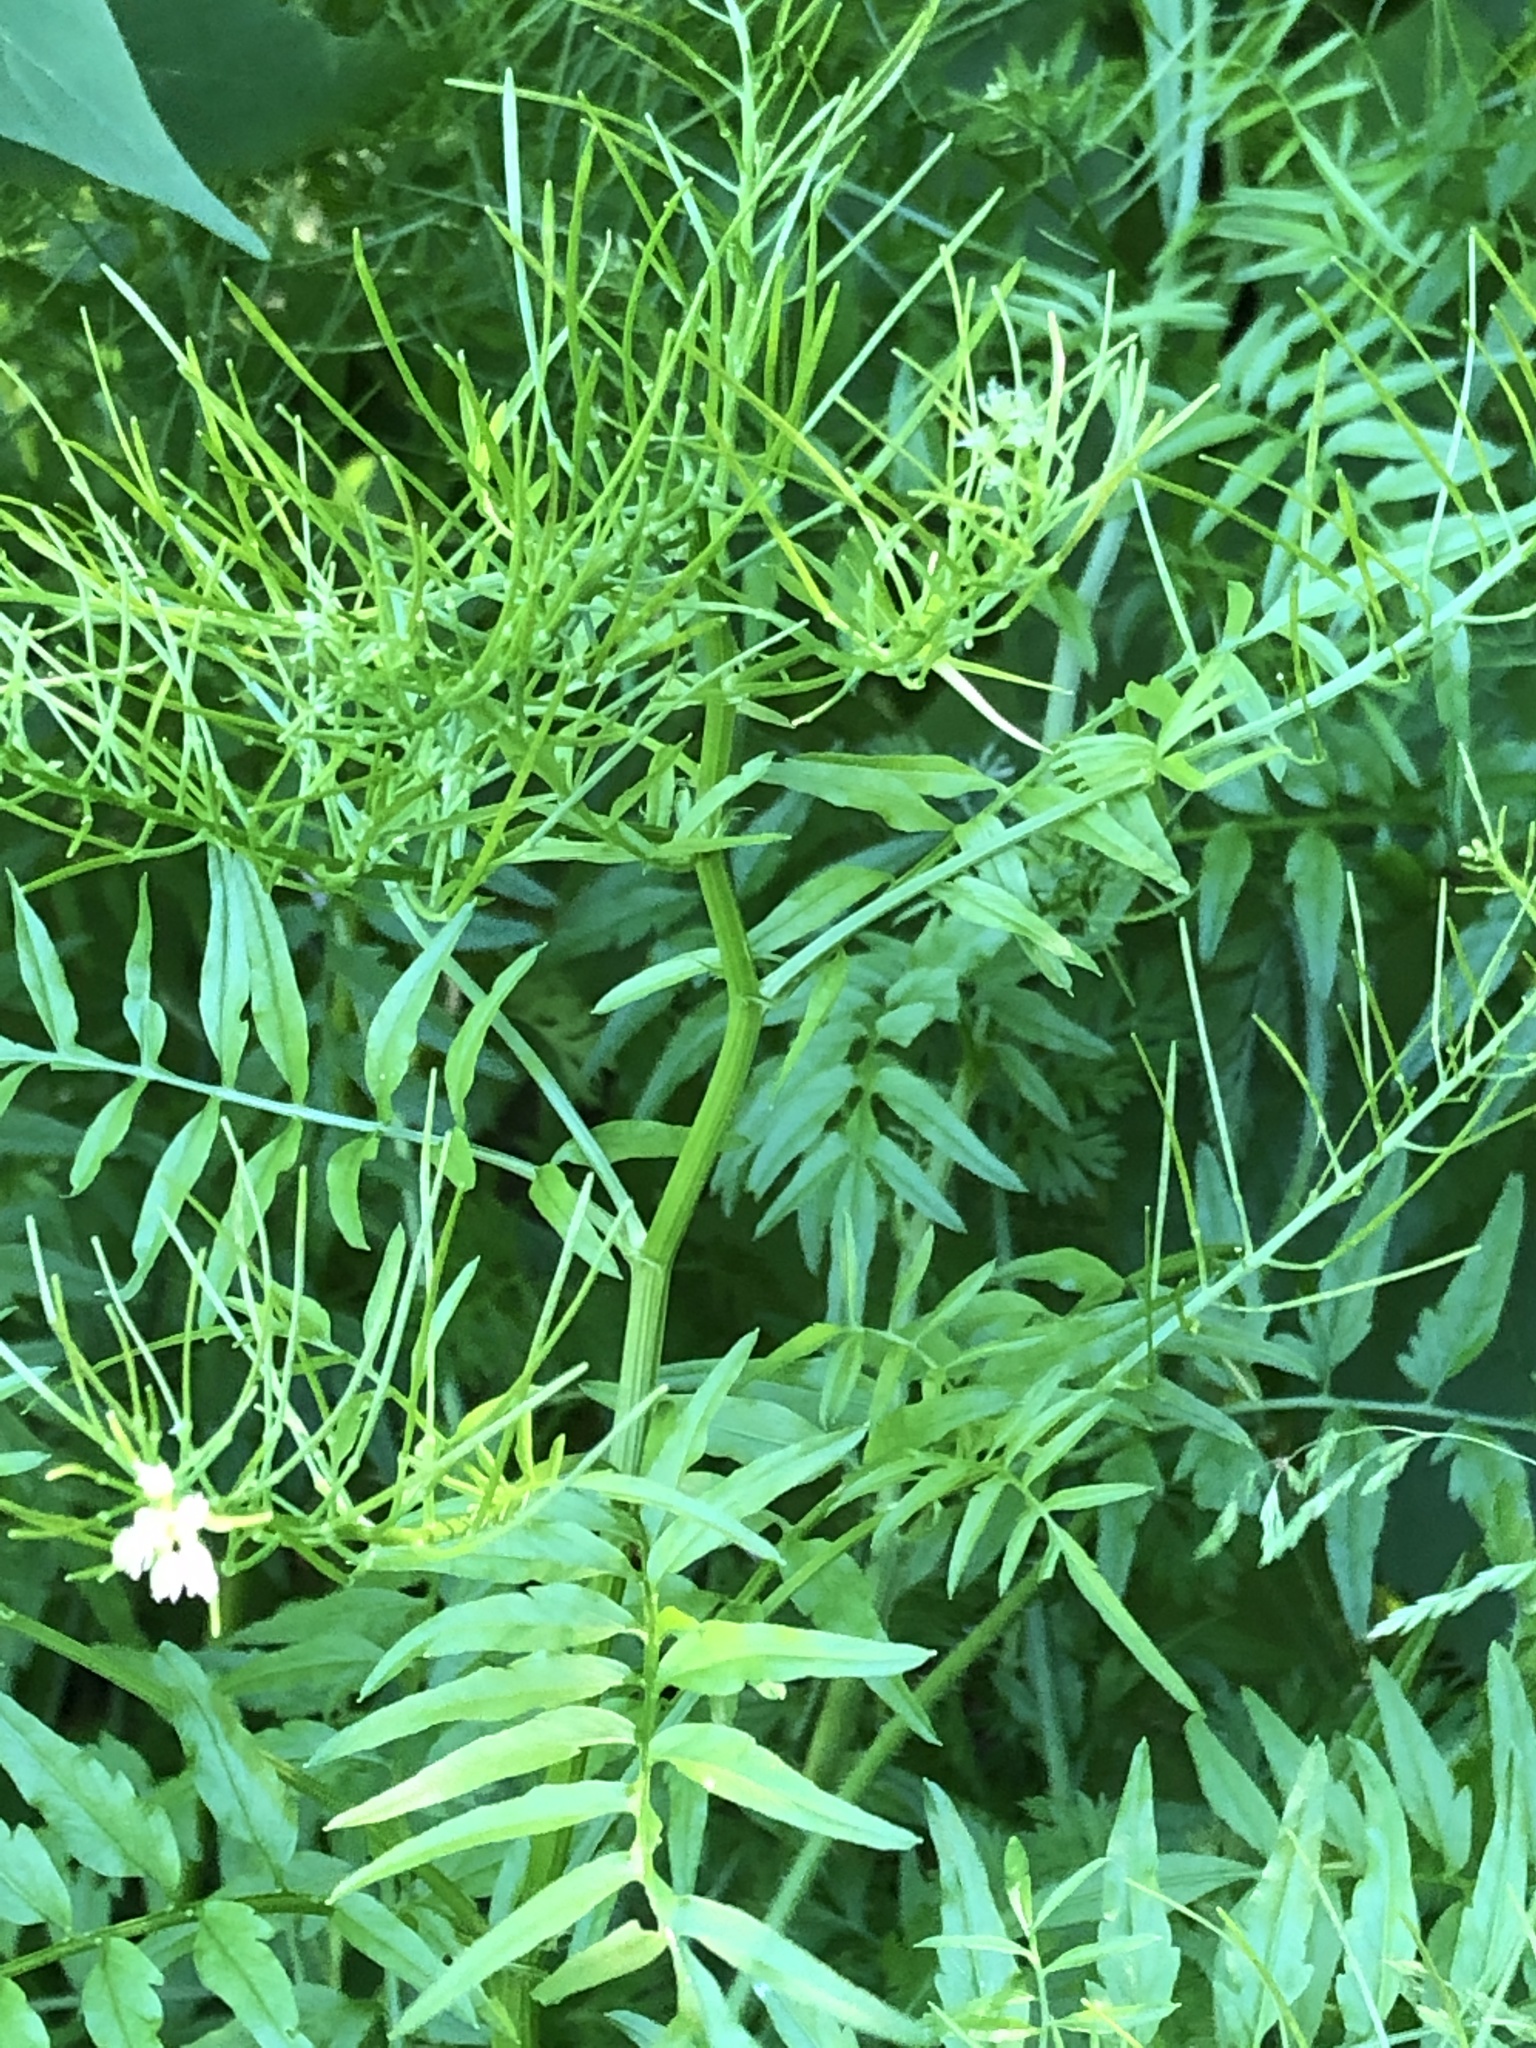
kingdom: Plantae
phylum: Tracheophyta
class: Magnoliopsida
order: Brassicales
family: Brassicaceae
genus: Cardamine
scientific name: Cardamine impatiens
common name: Narrow-leaved bitter-cress
